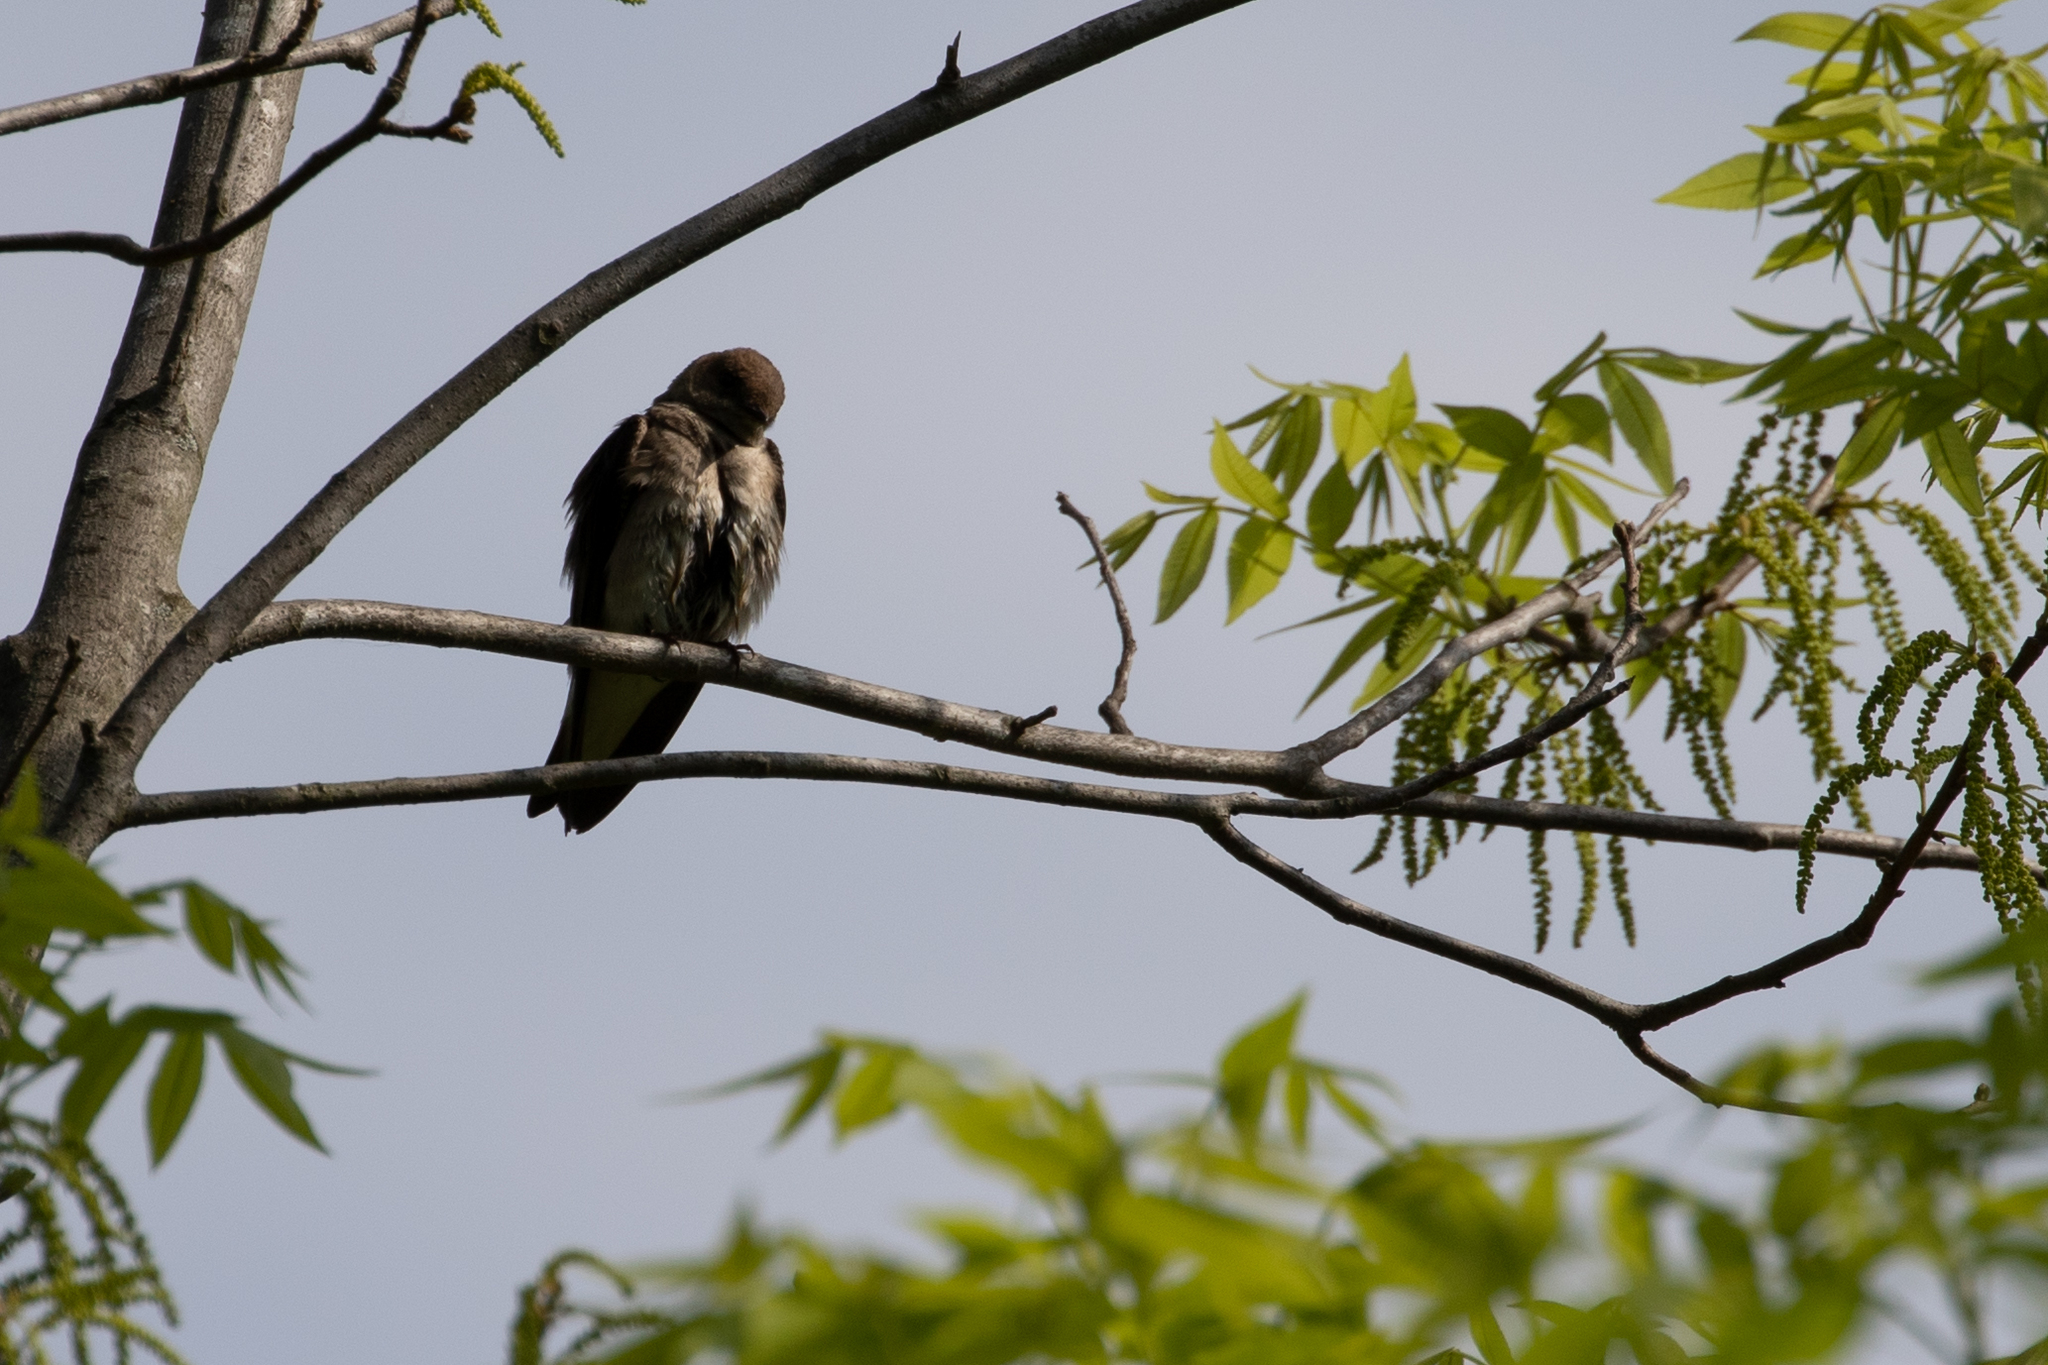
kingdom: Animalia
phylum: Chordata
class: Aves
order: Passeriformes
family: Hirundinidae
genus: Stelgidopteryx
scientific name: Stelgidopteryx serripennis
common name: Northern rough-winged swallow
